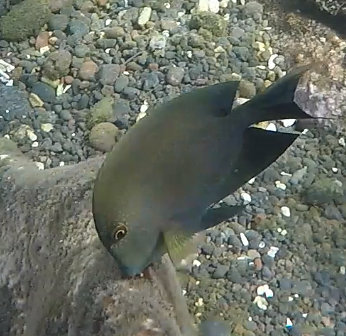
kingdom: Animalia
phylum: Chordata
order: Perciformes
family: Acanthuridae
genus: Ctenochaetus
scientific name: Ctenochaetus striatus
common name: Bristle-toothed surgeonfish
